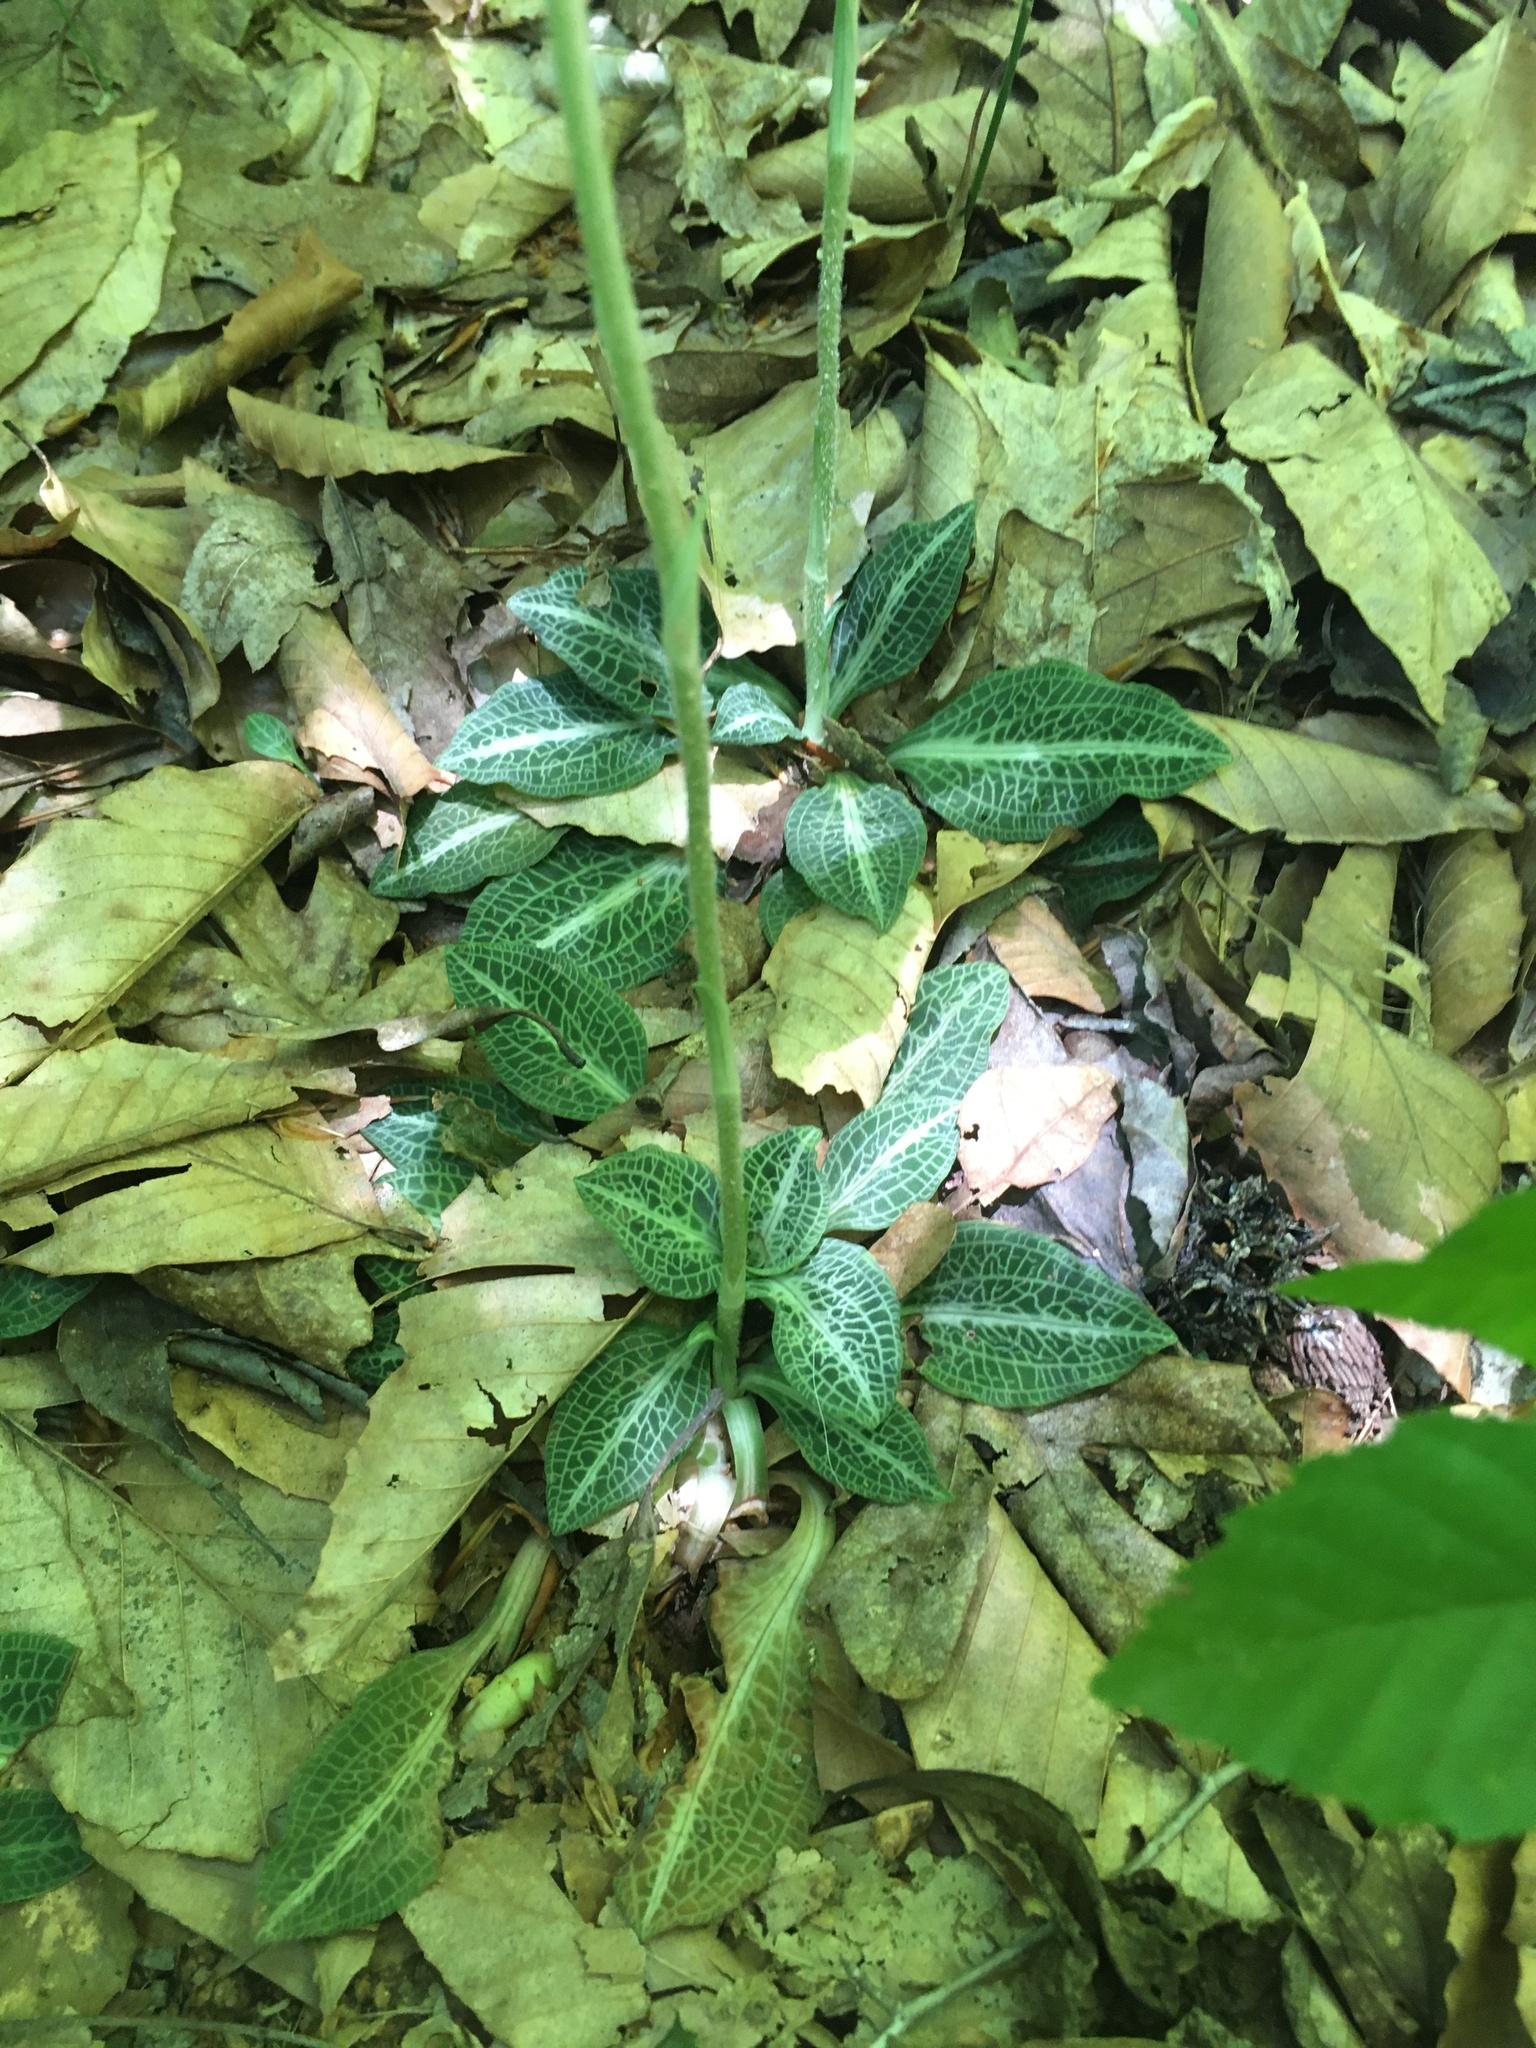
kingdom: Plantae
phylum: Tracheophyta
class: Liliopsida
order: Asparagales
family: Orchidaceae
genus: Goodyera
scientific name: Goodyera pubescens
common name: Downy rattlesnake-plantain
